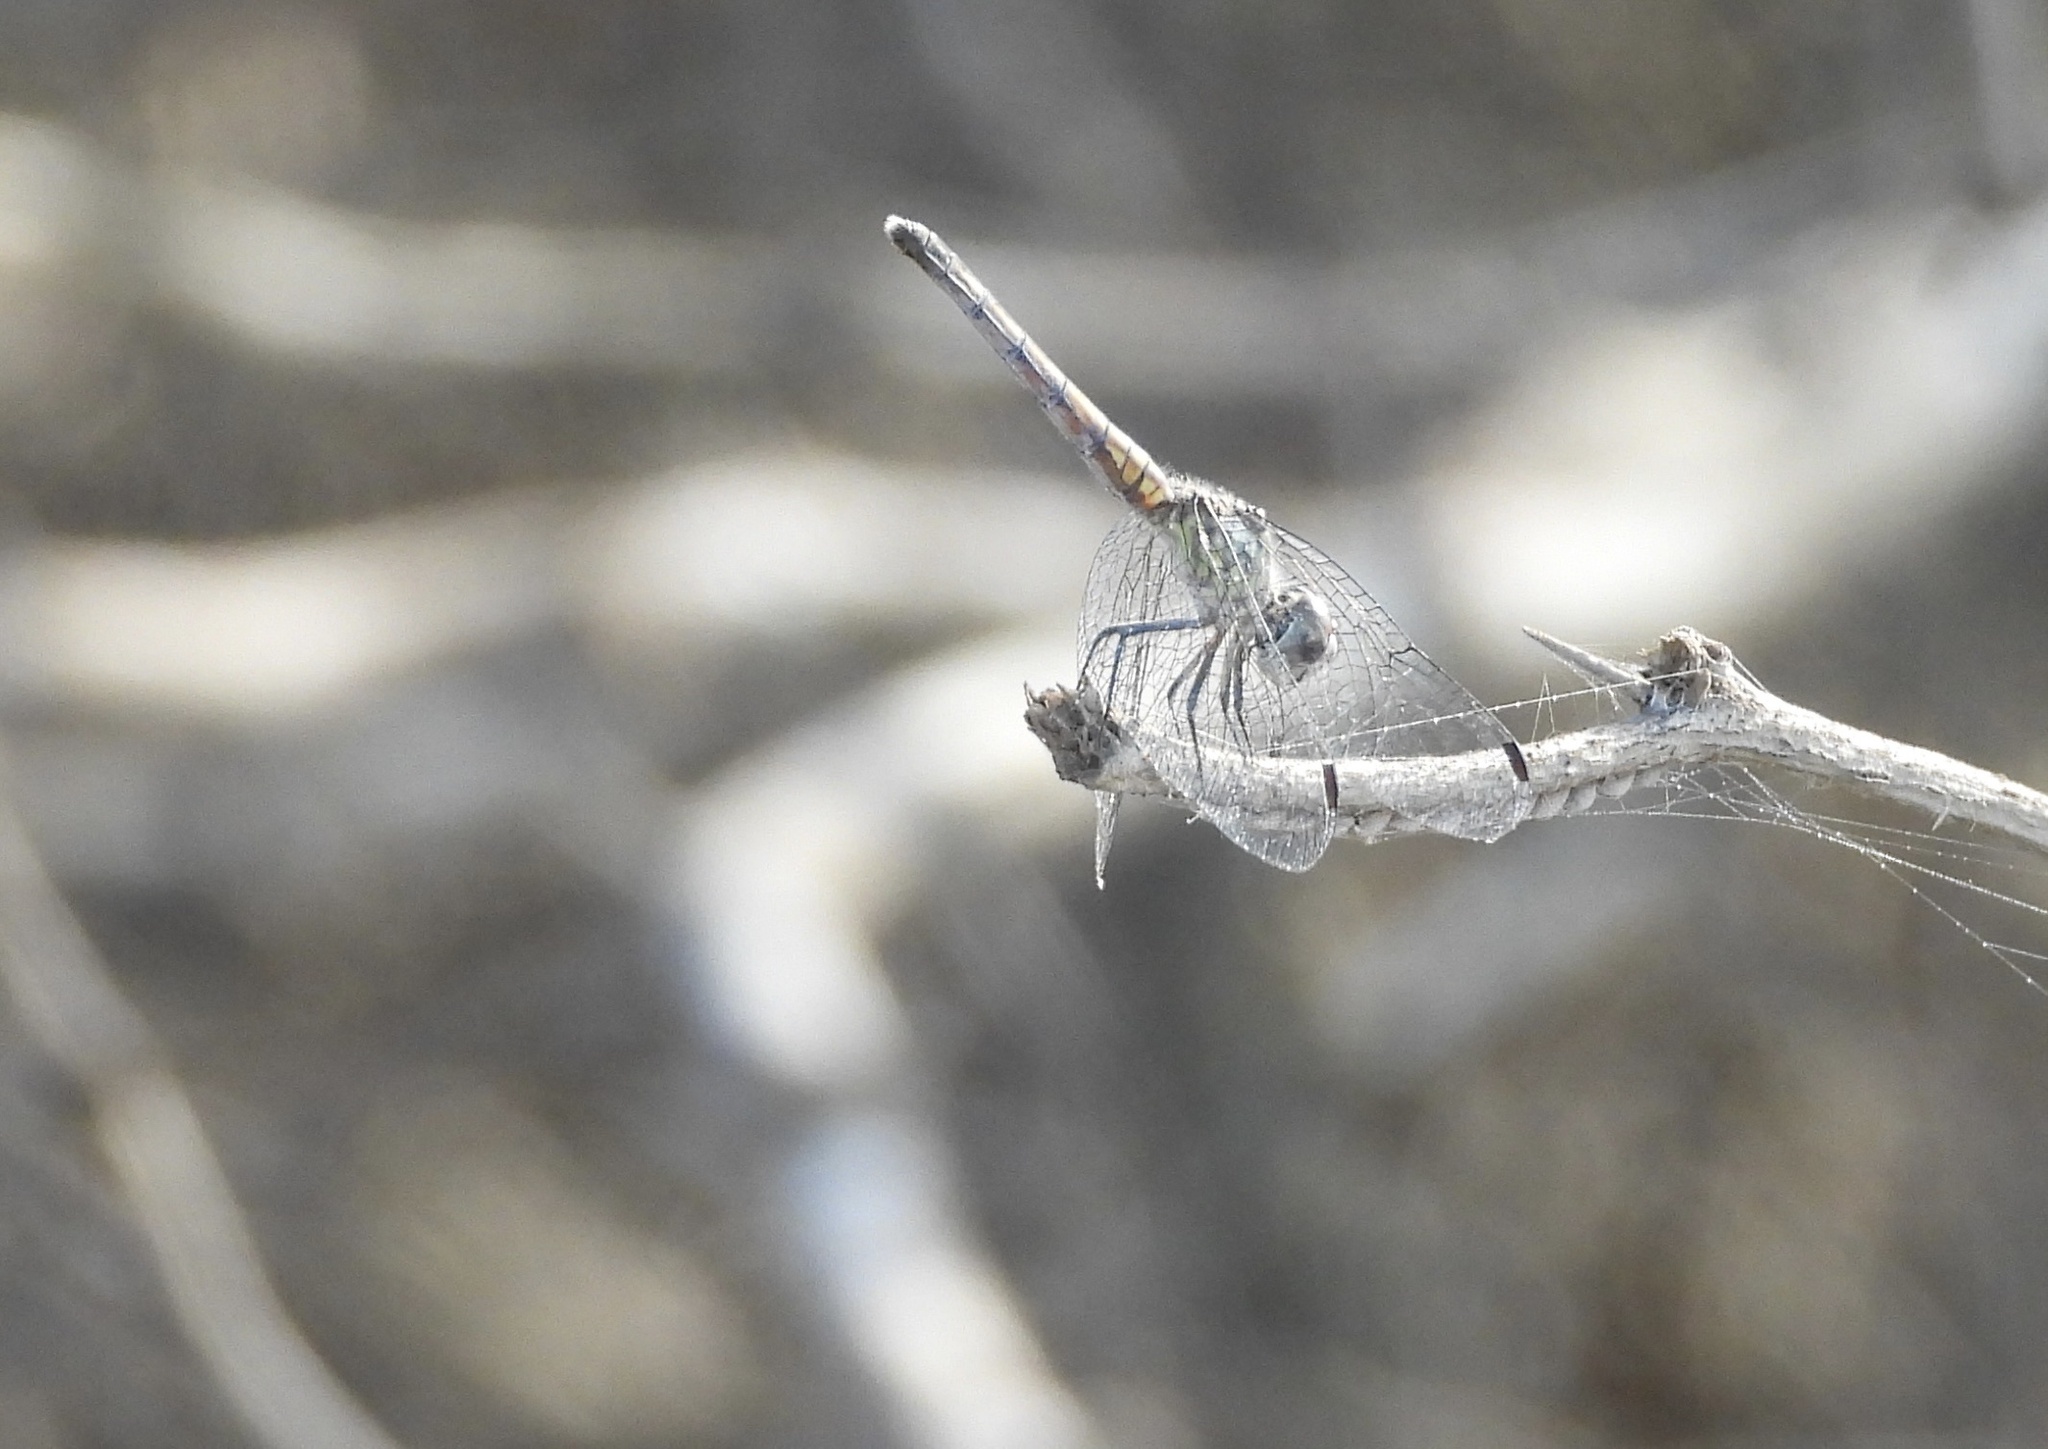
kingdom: Animalia
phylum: Arthropoda
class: Insecta
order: Odonata
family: Libellulidae
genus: Micrathyria
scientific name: Micrathyria schumanni
